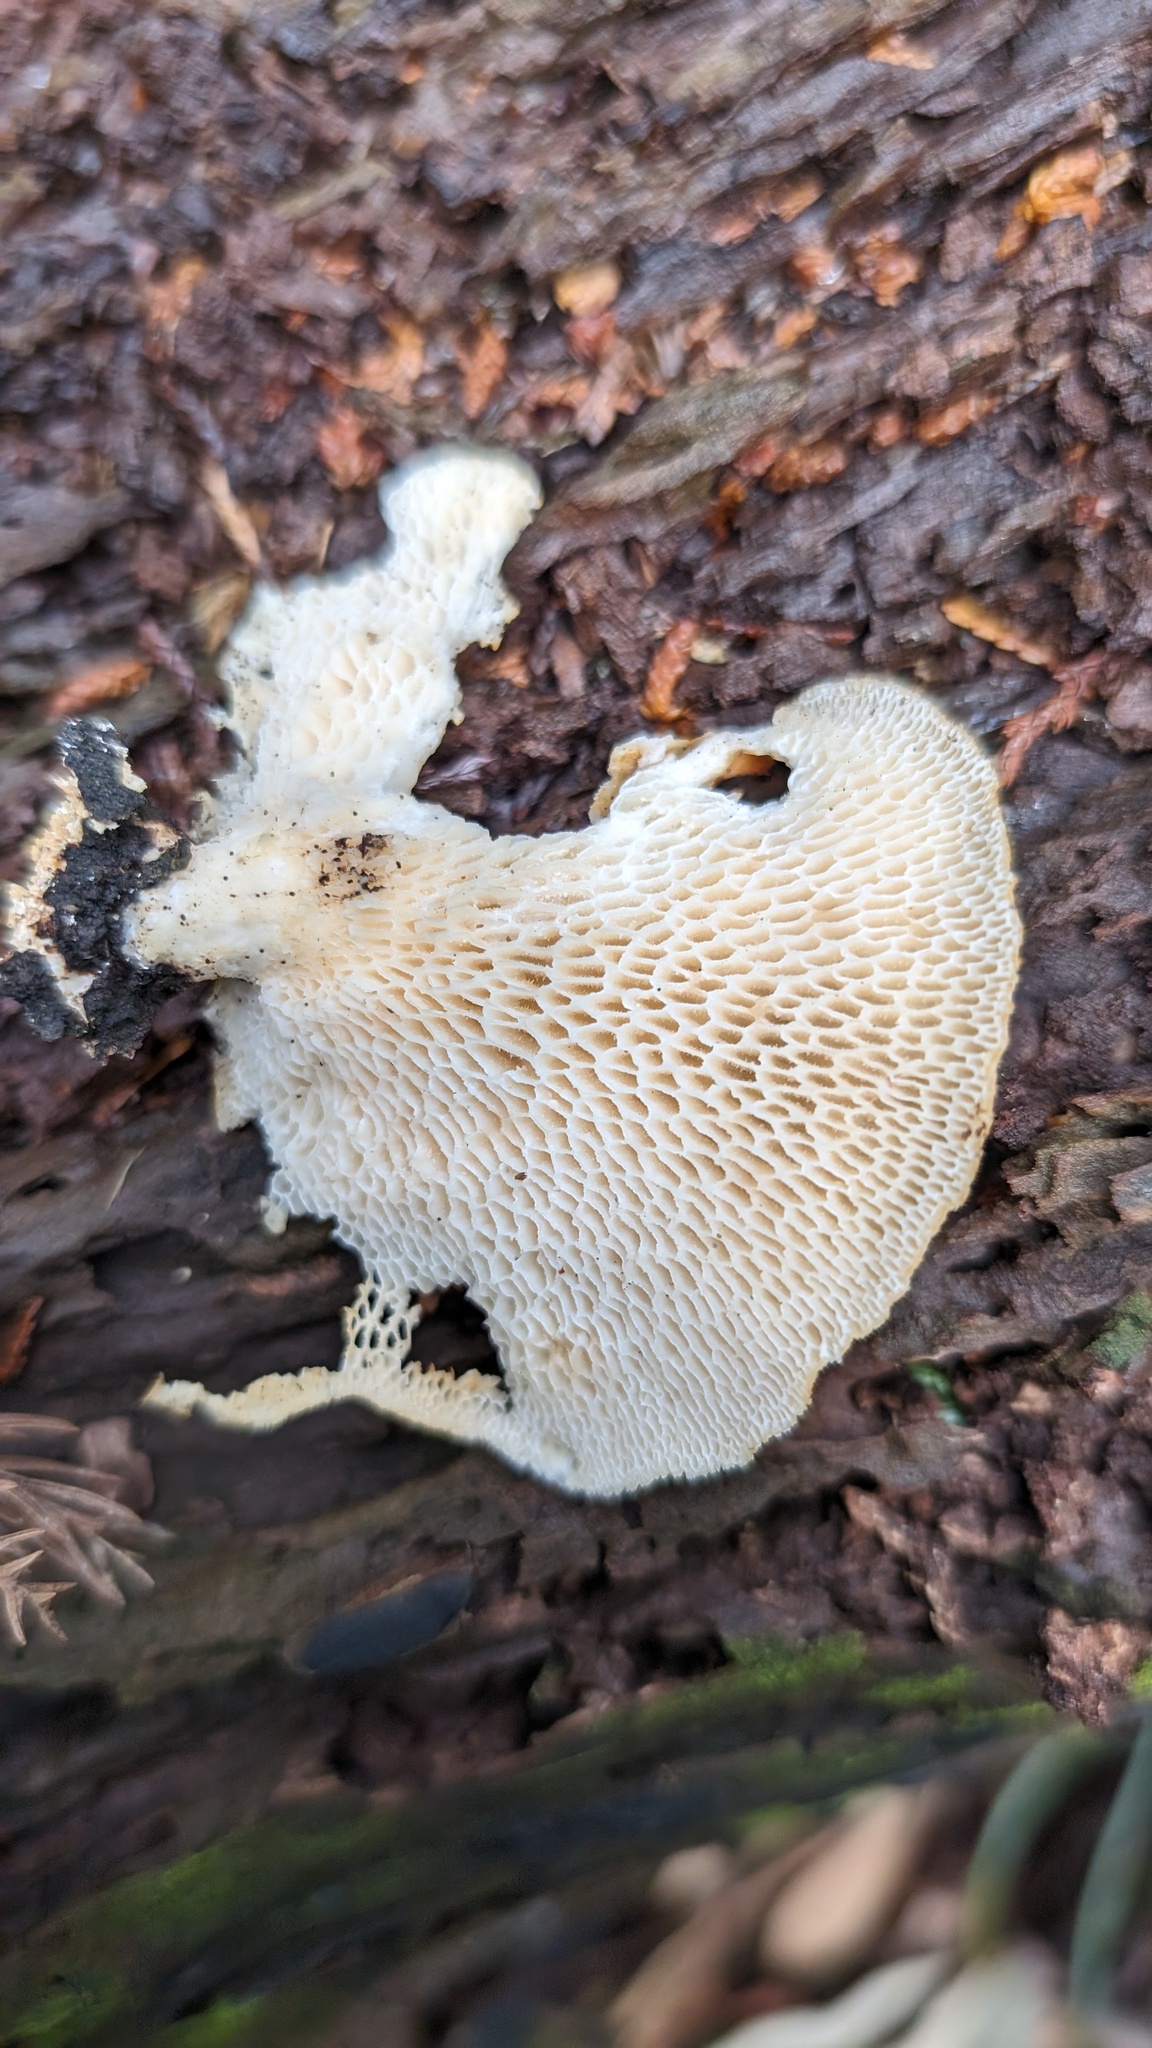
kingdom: Fungi
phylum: Basidiomycota
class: Agaricomycetes
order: Polyporales
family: Polyporaceae
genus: Neofavolus
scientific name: Neofavolus alveolaris
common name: Hexagonal-pored polypore
